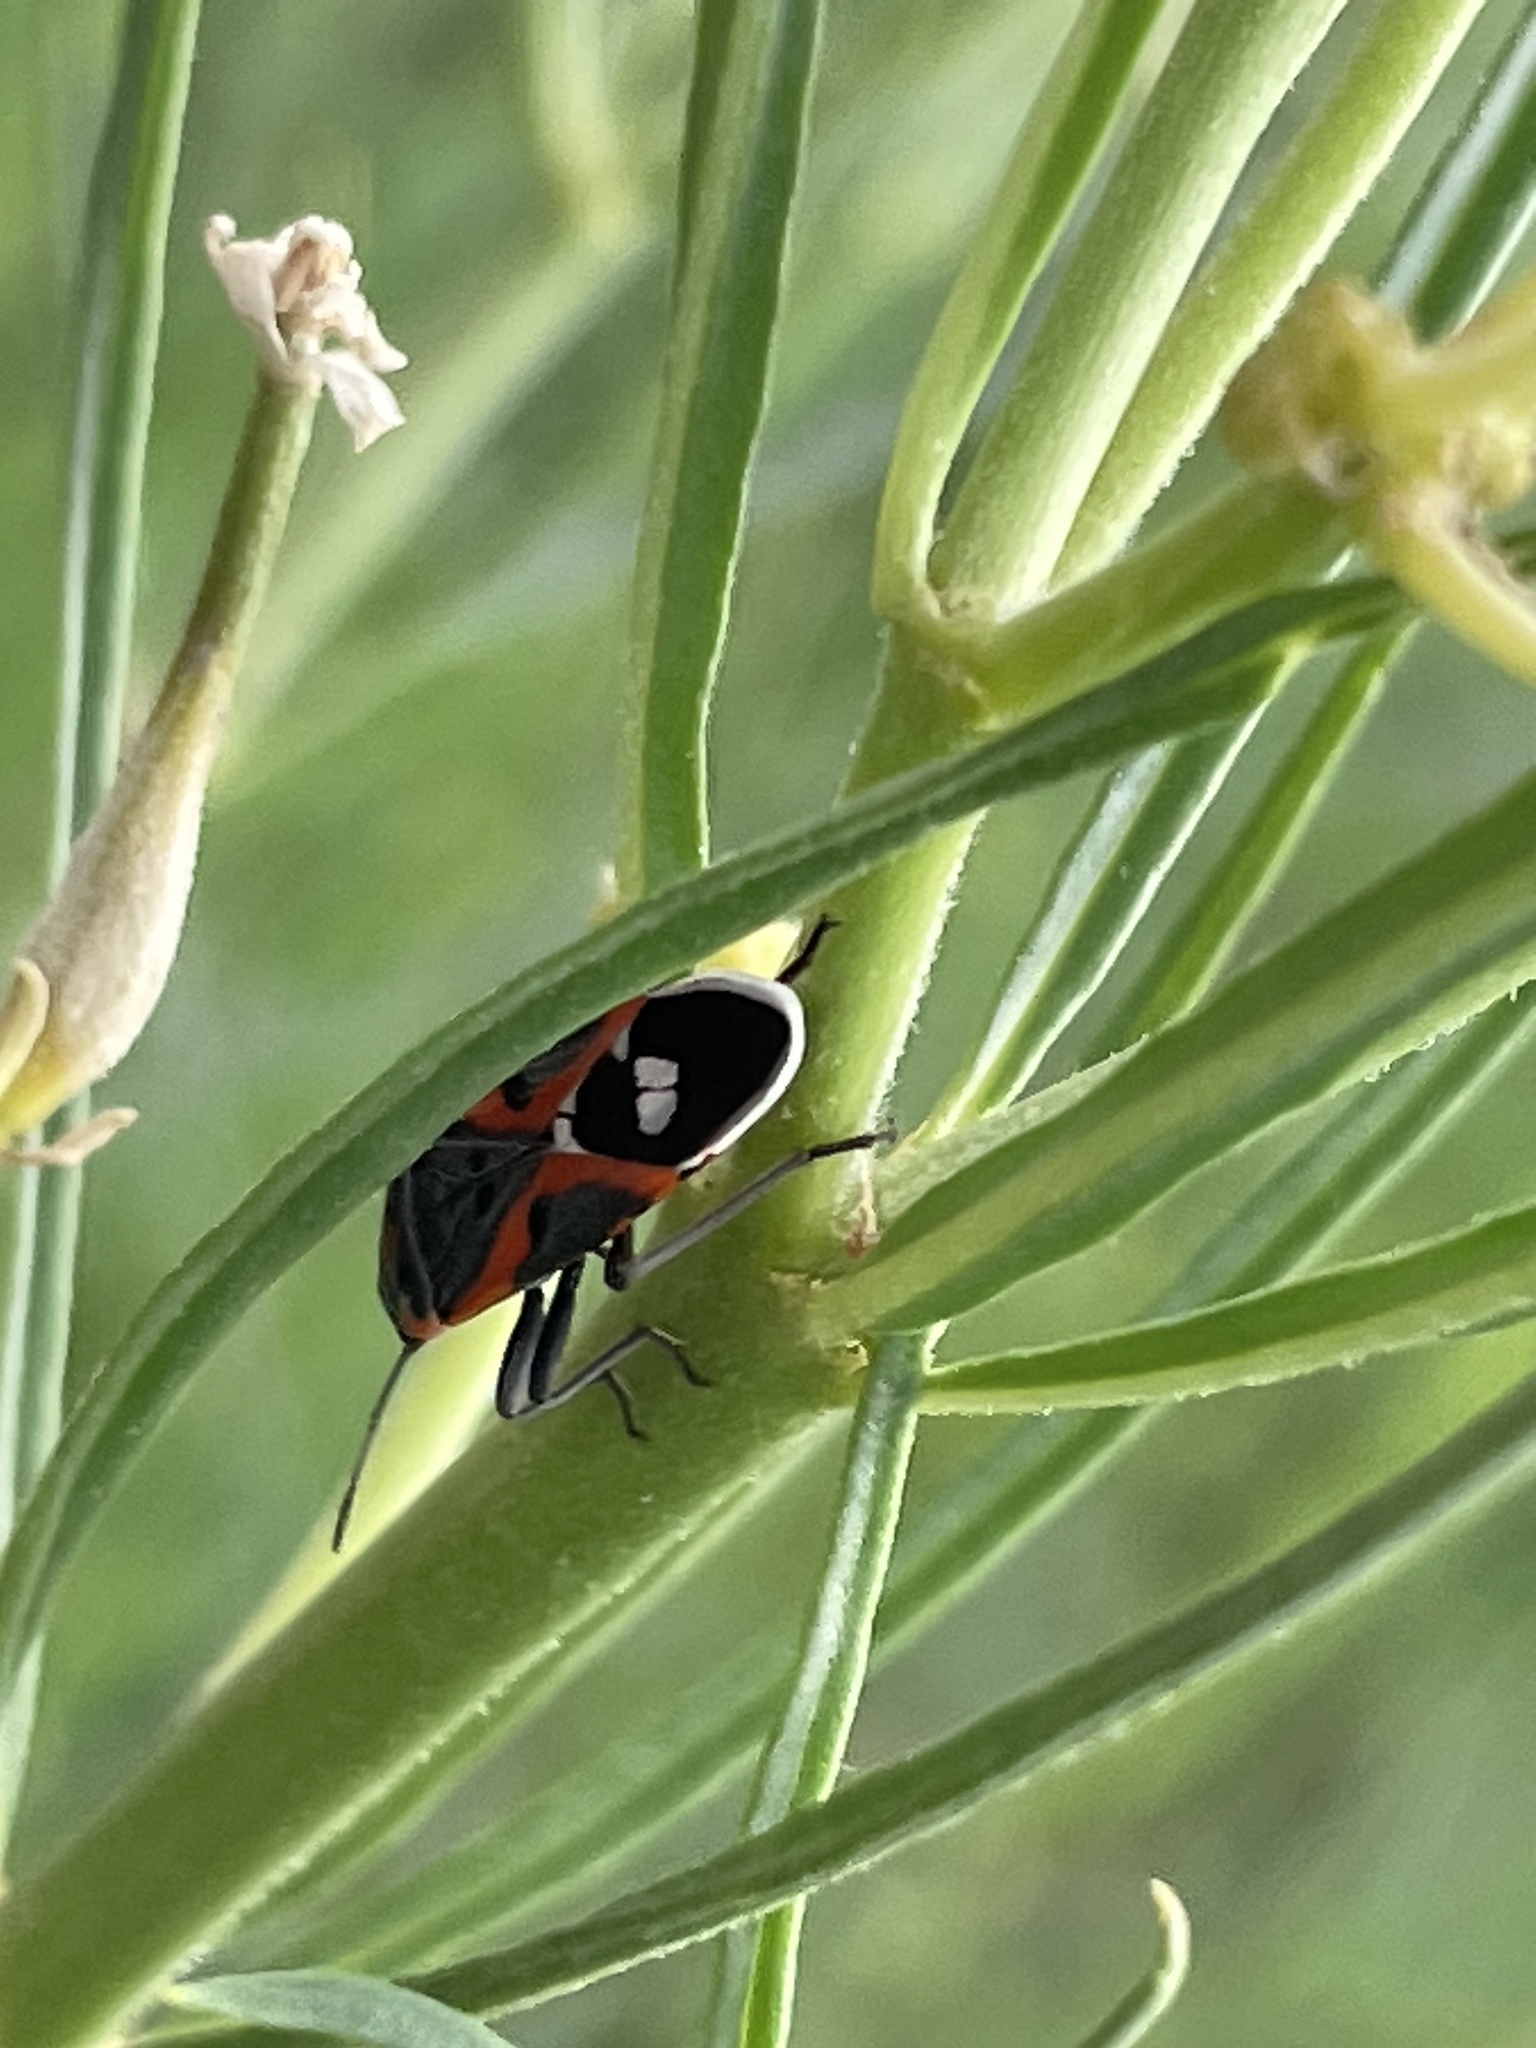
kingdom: Animalia
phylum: Arthropoda
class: Insecta
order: Hemiptera
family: Lygaeidae
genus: Lygaeus
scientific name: Lygaeus kalmii
